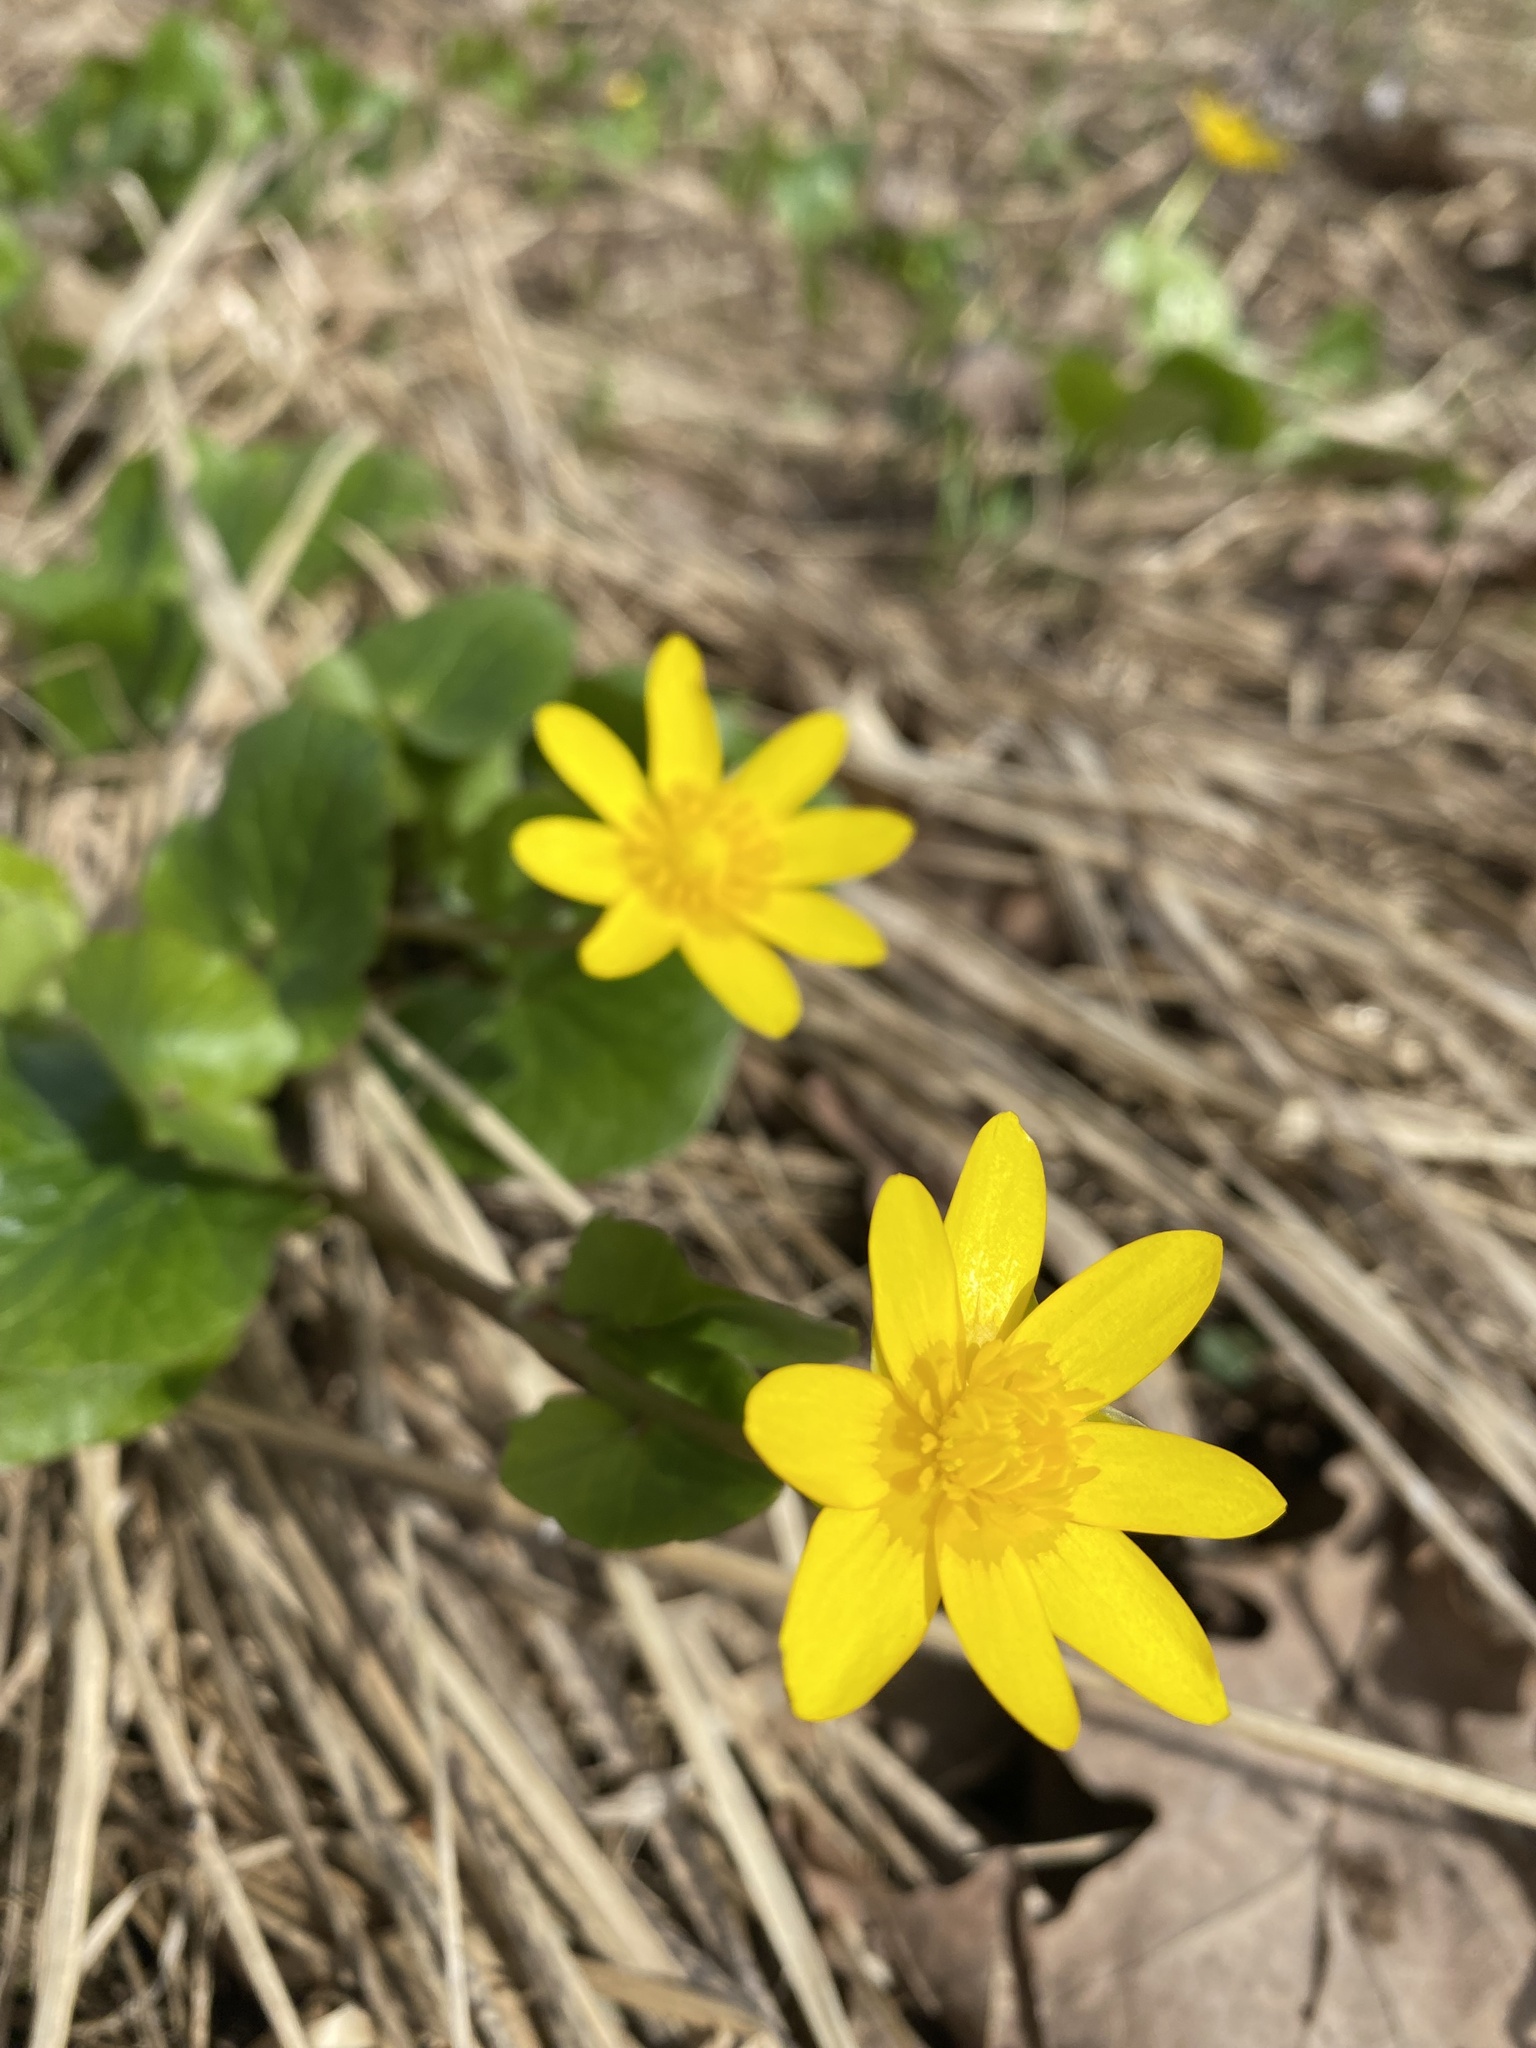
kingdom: Plantae
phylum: Tracheophyta
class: Magnoliopsida
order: Ranunculales
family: Ranunculaceae
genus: Ficaria
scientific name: Ficaria verna
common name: Lesser celandine
